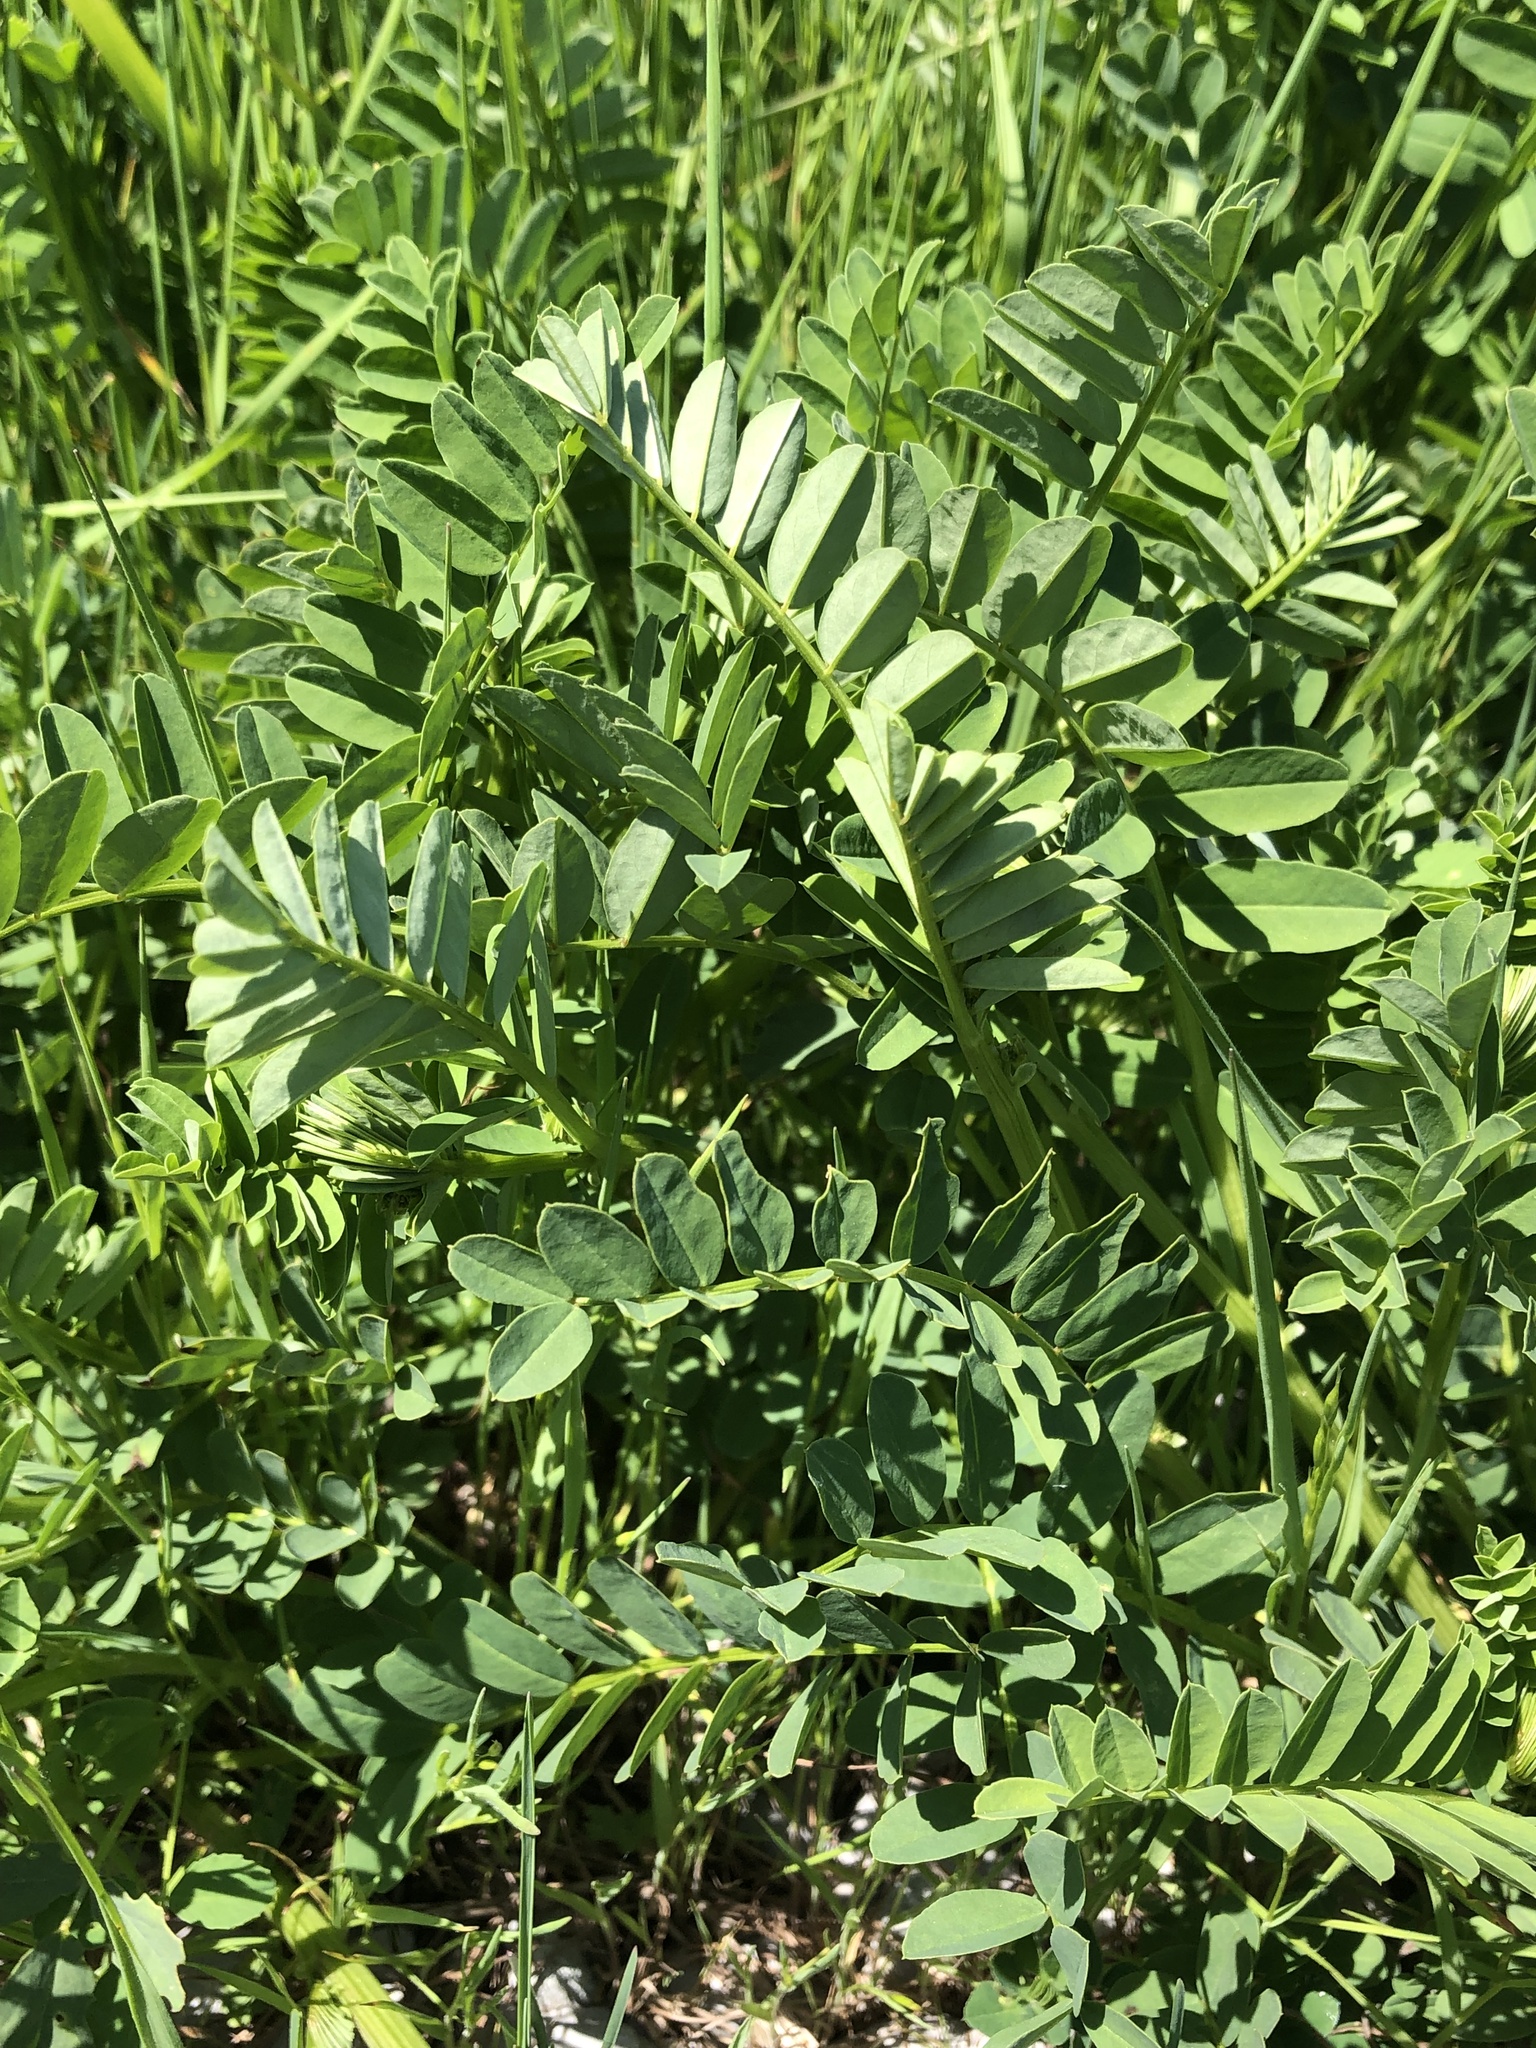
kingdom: Plantae
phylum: Tracheophyta
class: Magnoliopsida
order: Fabales
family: Fabaceae
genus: Coronilla
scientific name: Coronilla varia
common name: Crownvetch
